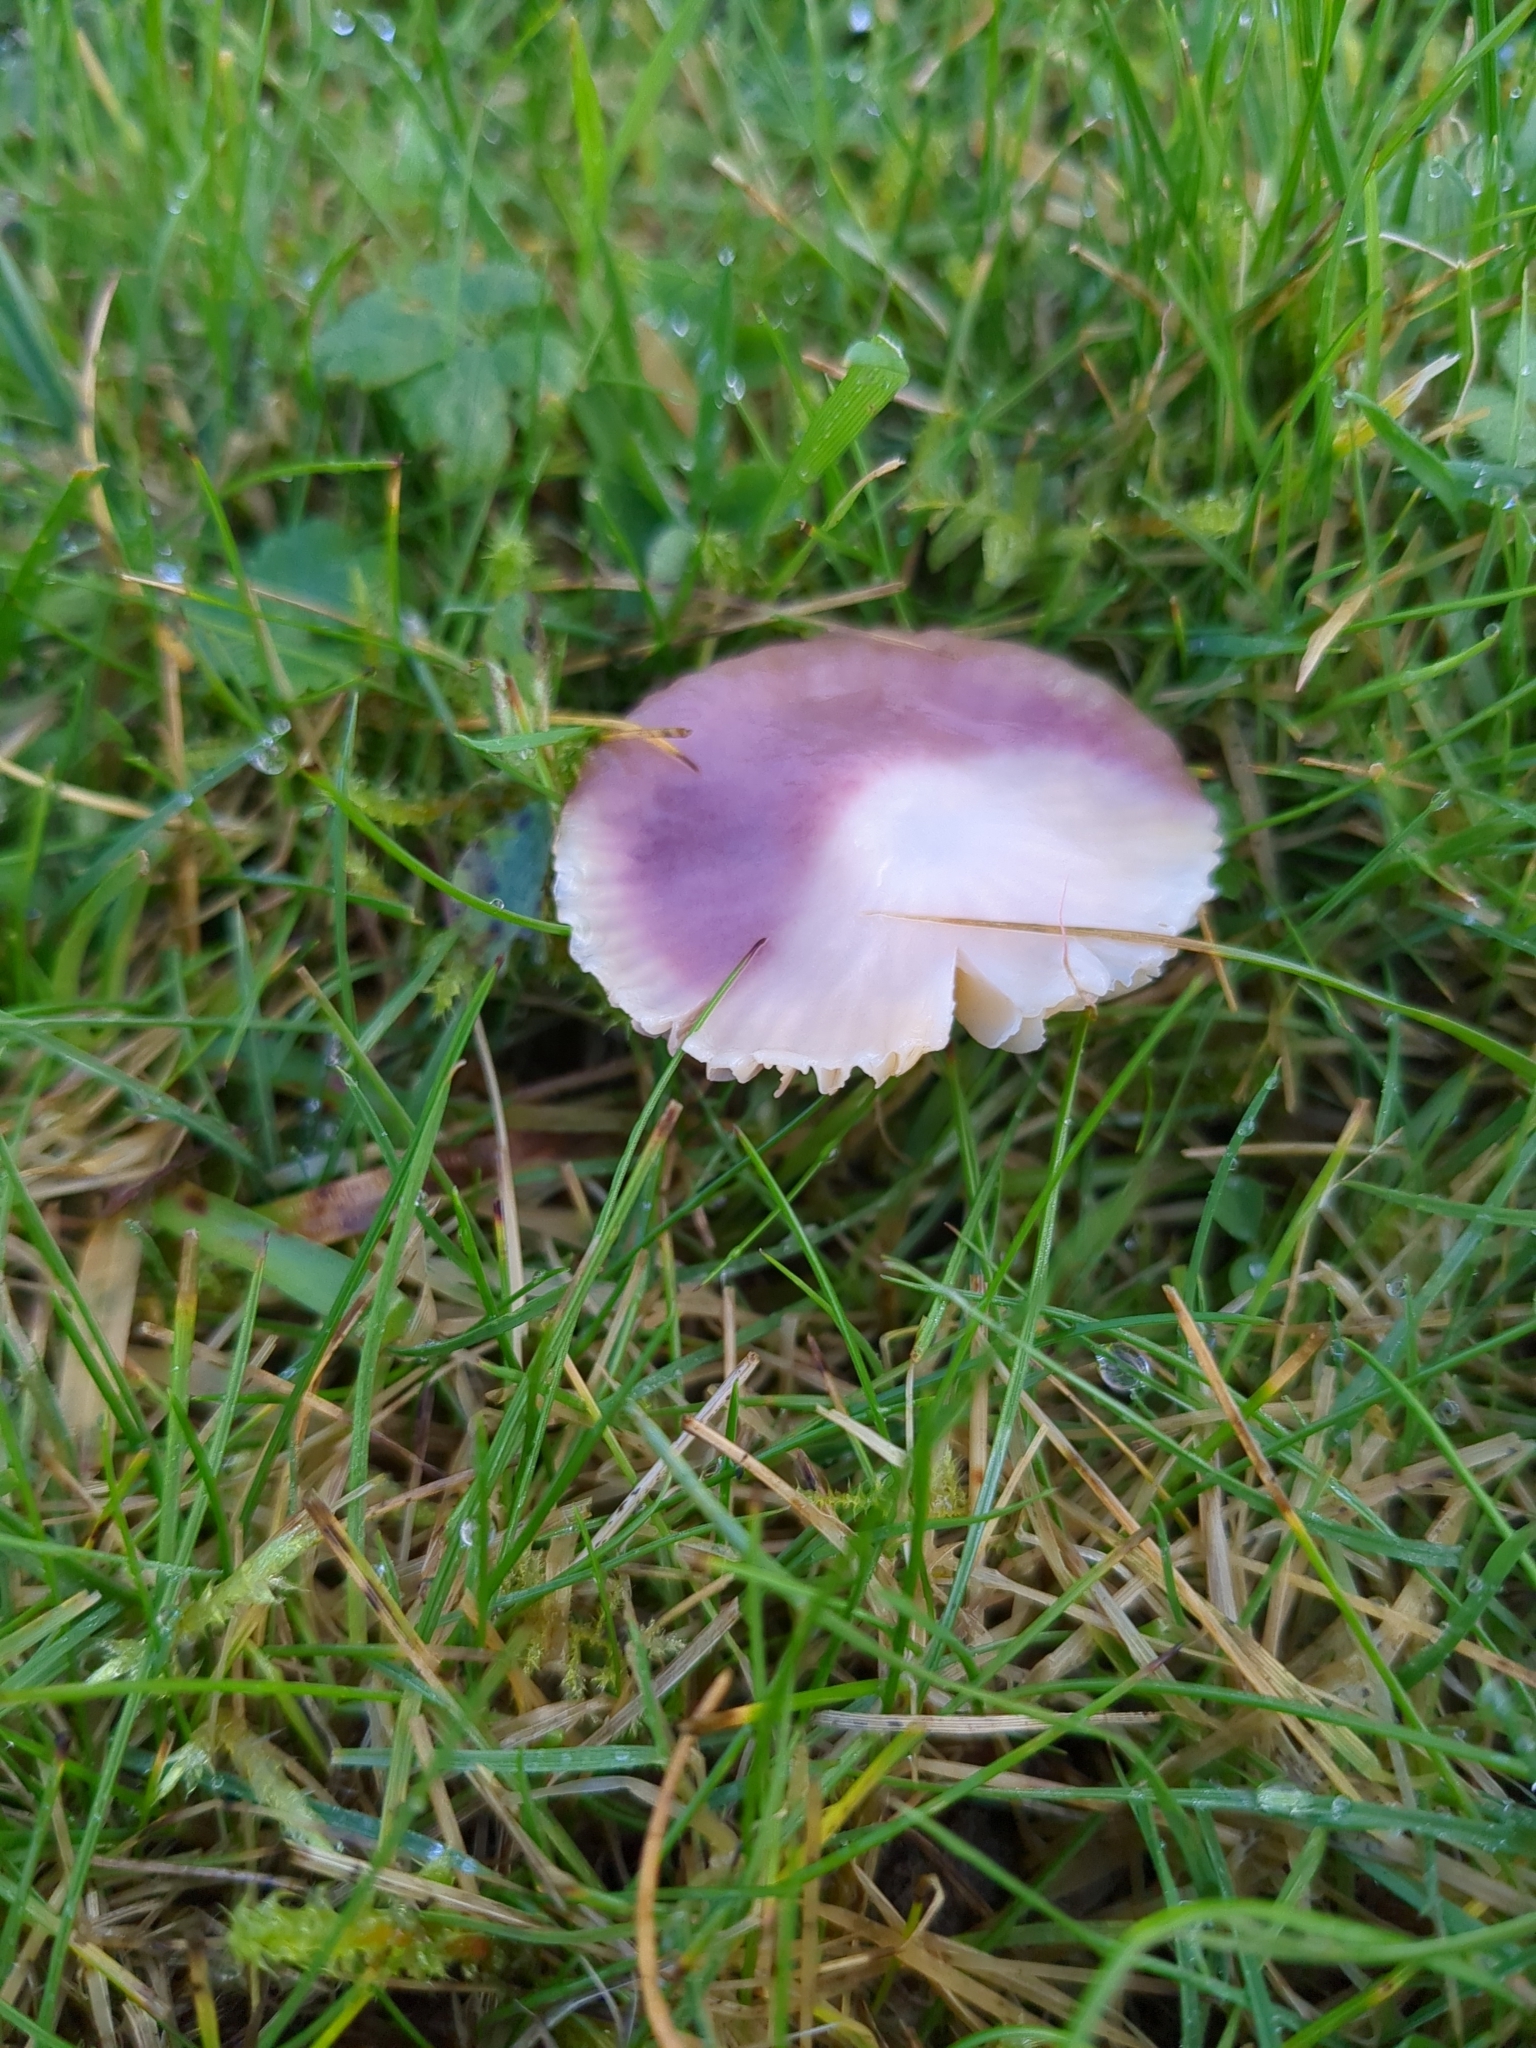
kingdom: Fungi
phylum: Basidiomycota
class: Agaricomycetes
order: Agaricales
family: Hygrophoraceae
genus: Gliophorus
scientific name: Gliophorus reginae
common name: Jubilee waxcap
